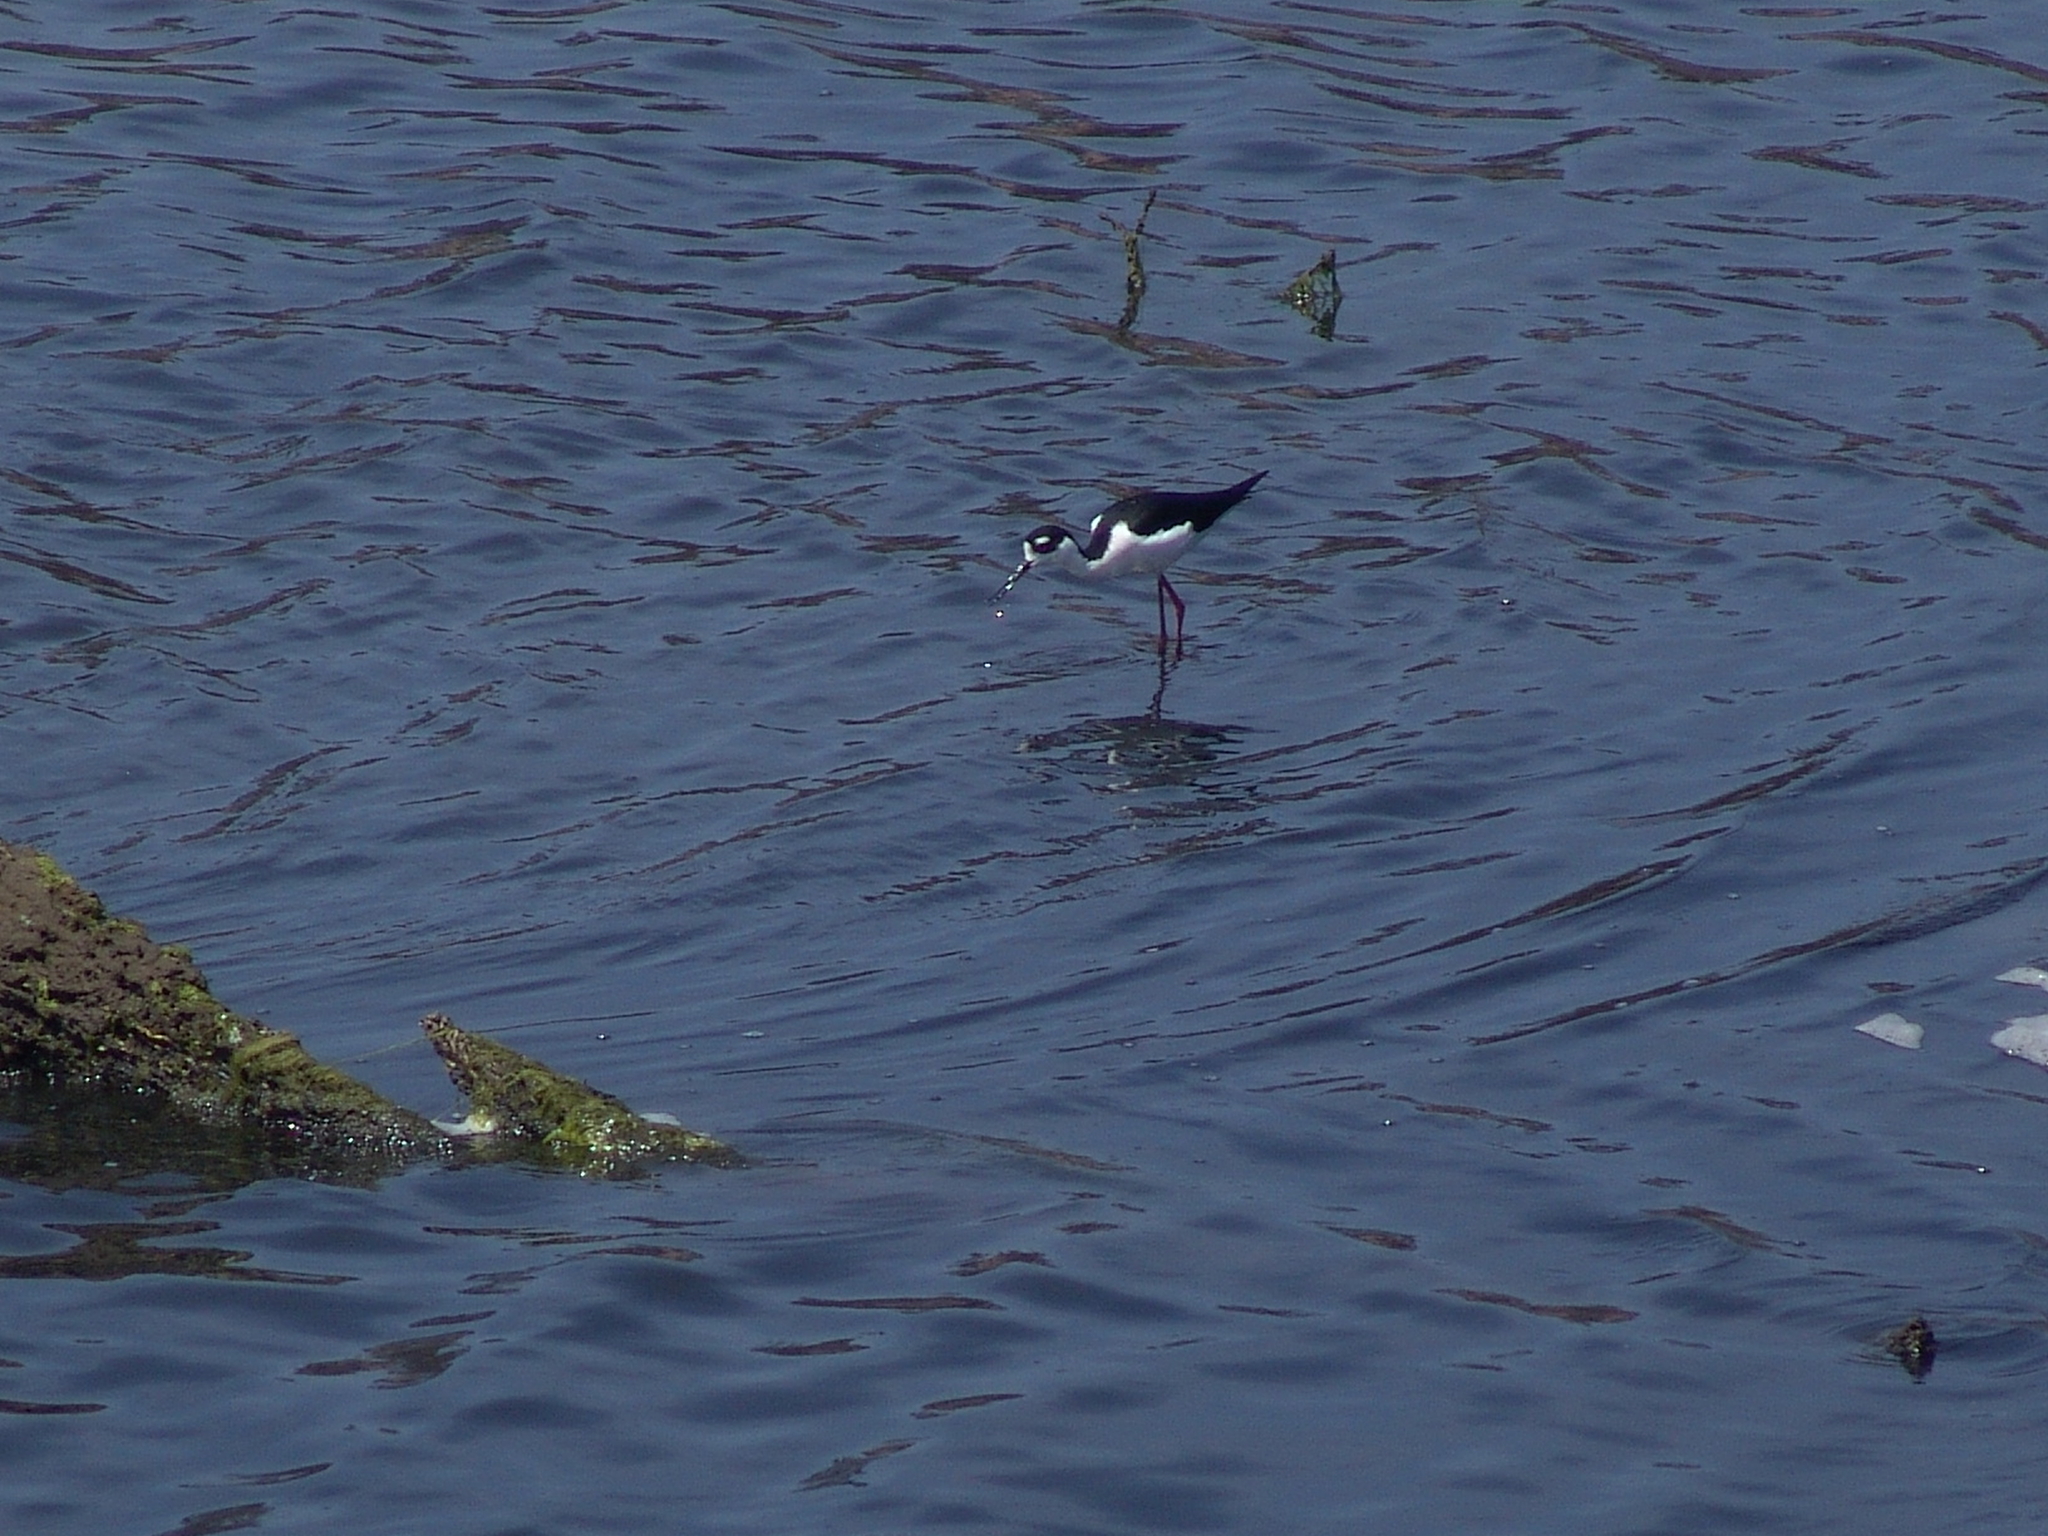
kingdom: Animalia
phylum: Chordata
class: Aves
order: Charadriiformes
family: Recurvirostridae
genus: Himantopus
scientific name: Himantopus mexicanus
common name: Black-necked stilt
